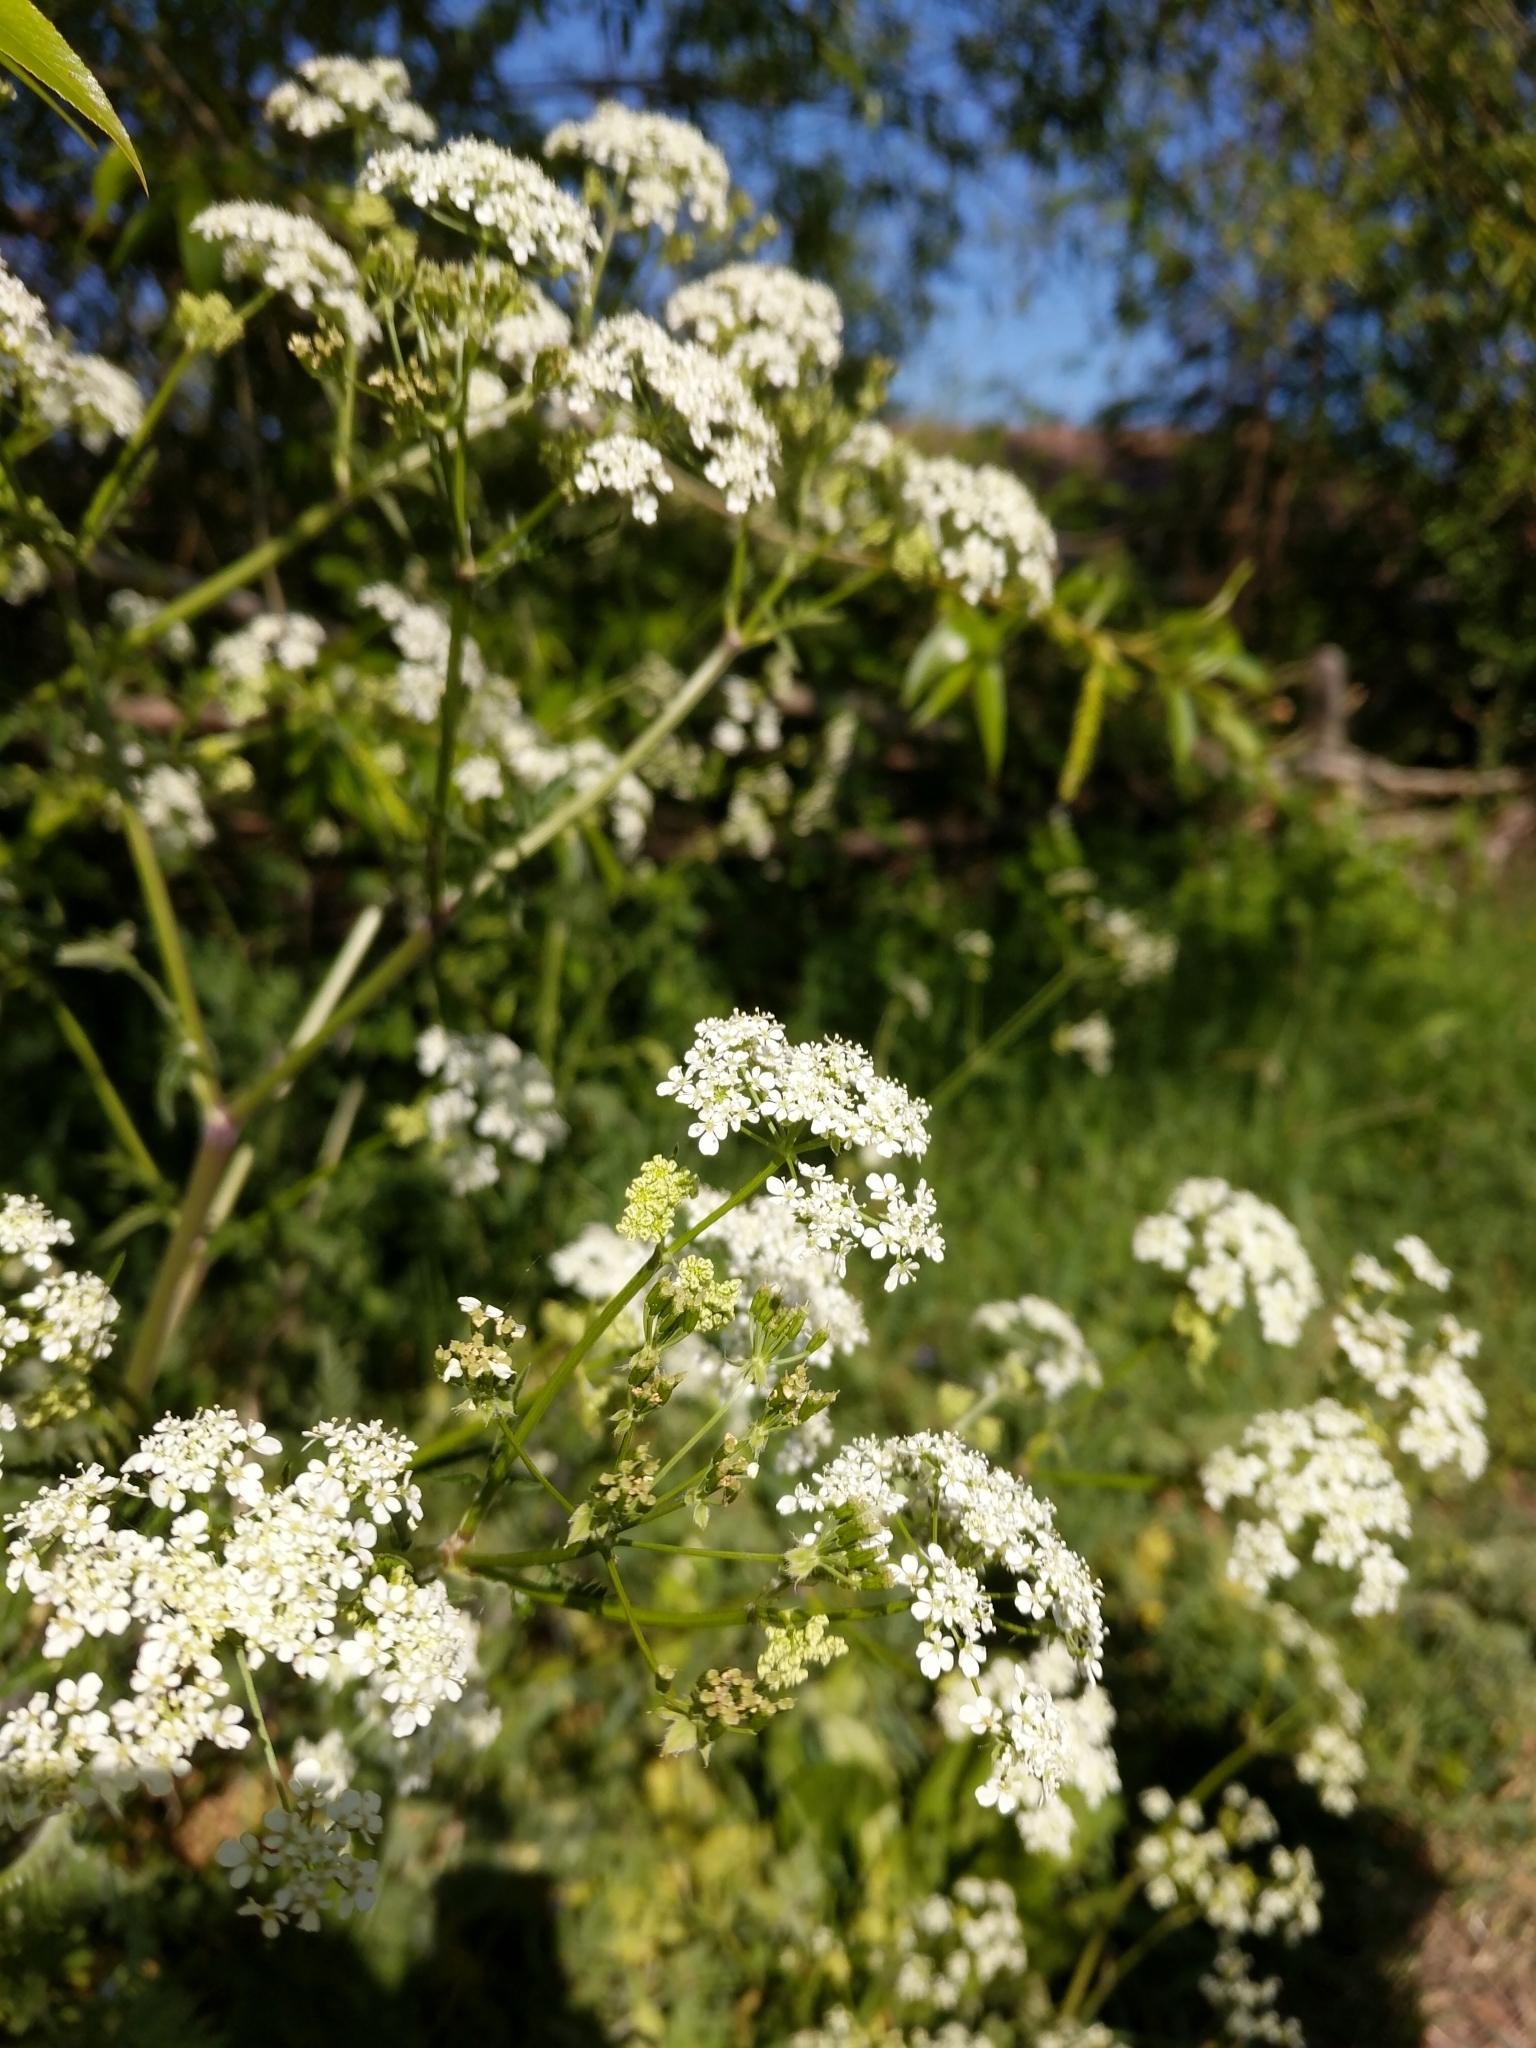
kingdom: Plantae
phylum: Tracheophyta
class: Magnoliopsida
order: Apiales
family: Apiaceae
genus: Anthriscus
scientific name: Anthriscus sylvestris
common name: Cow parsley
